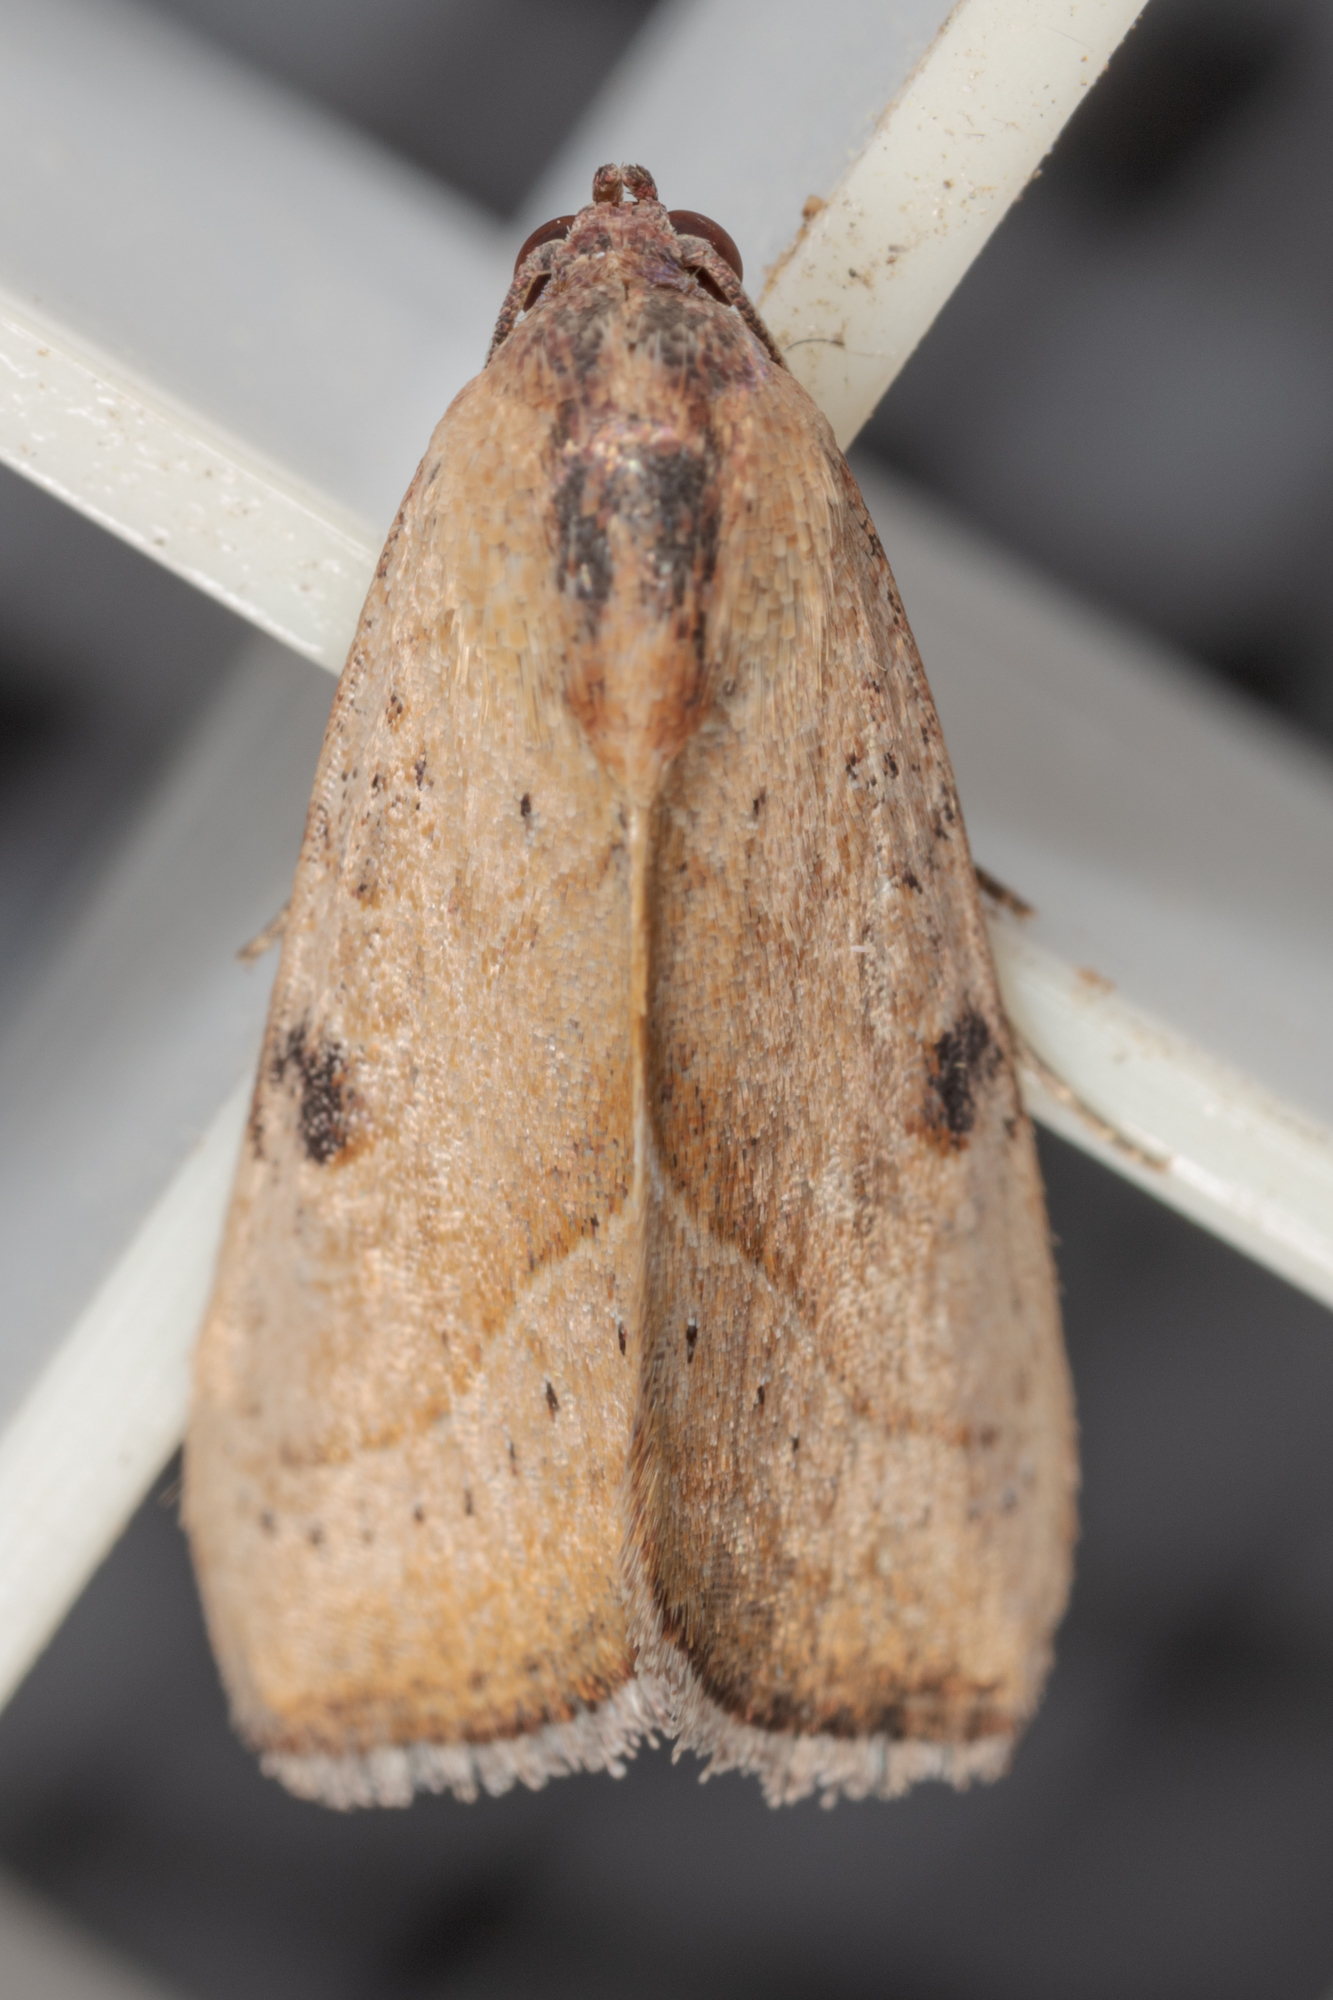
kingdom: Animalia
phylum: Arthropoda
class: Insecta
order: Lepidoptera
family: Noctuidae
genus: Galgula
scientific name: Galgula partita
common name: Wedgeling
